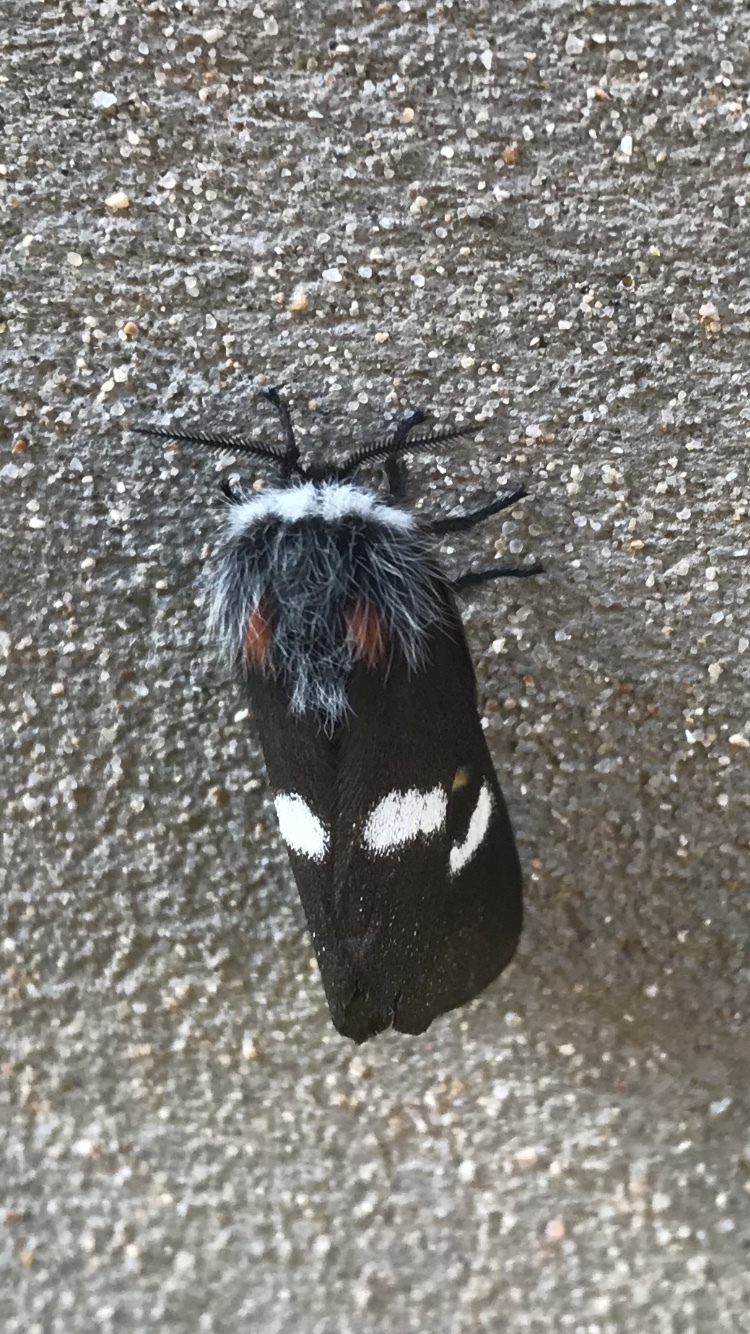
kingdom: Animalia
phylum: Arthropoda
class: Insecta
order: Lepidoptera
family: Saturniidae
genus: Hemileuca
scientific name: Hemileuca grotei
